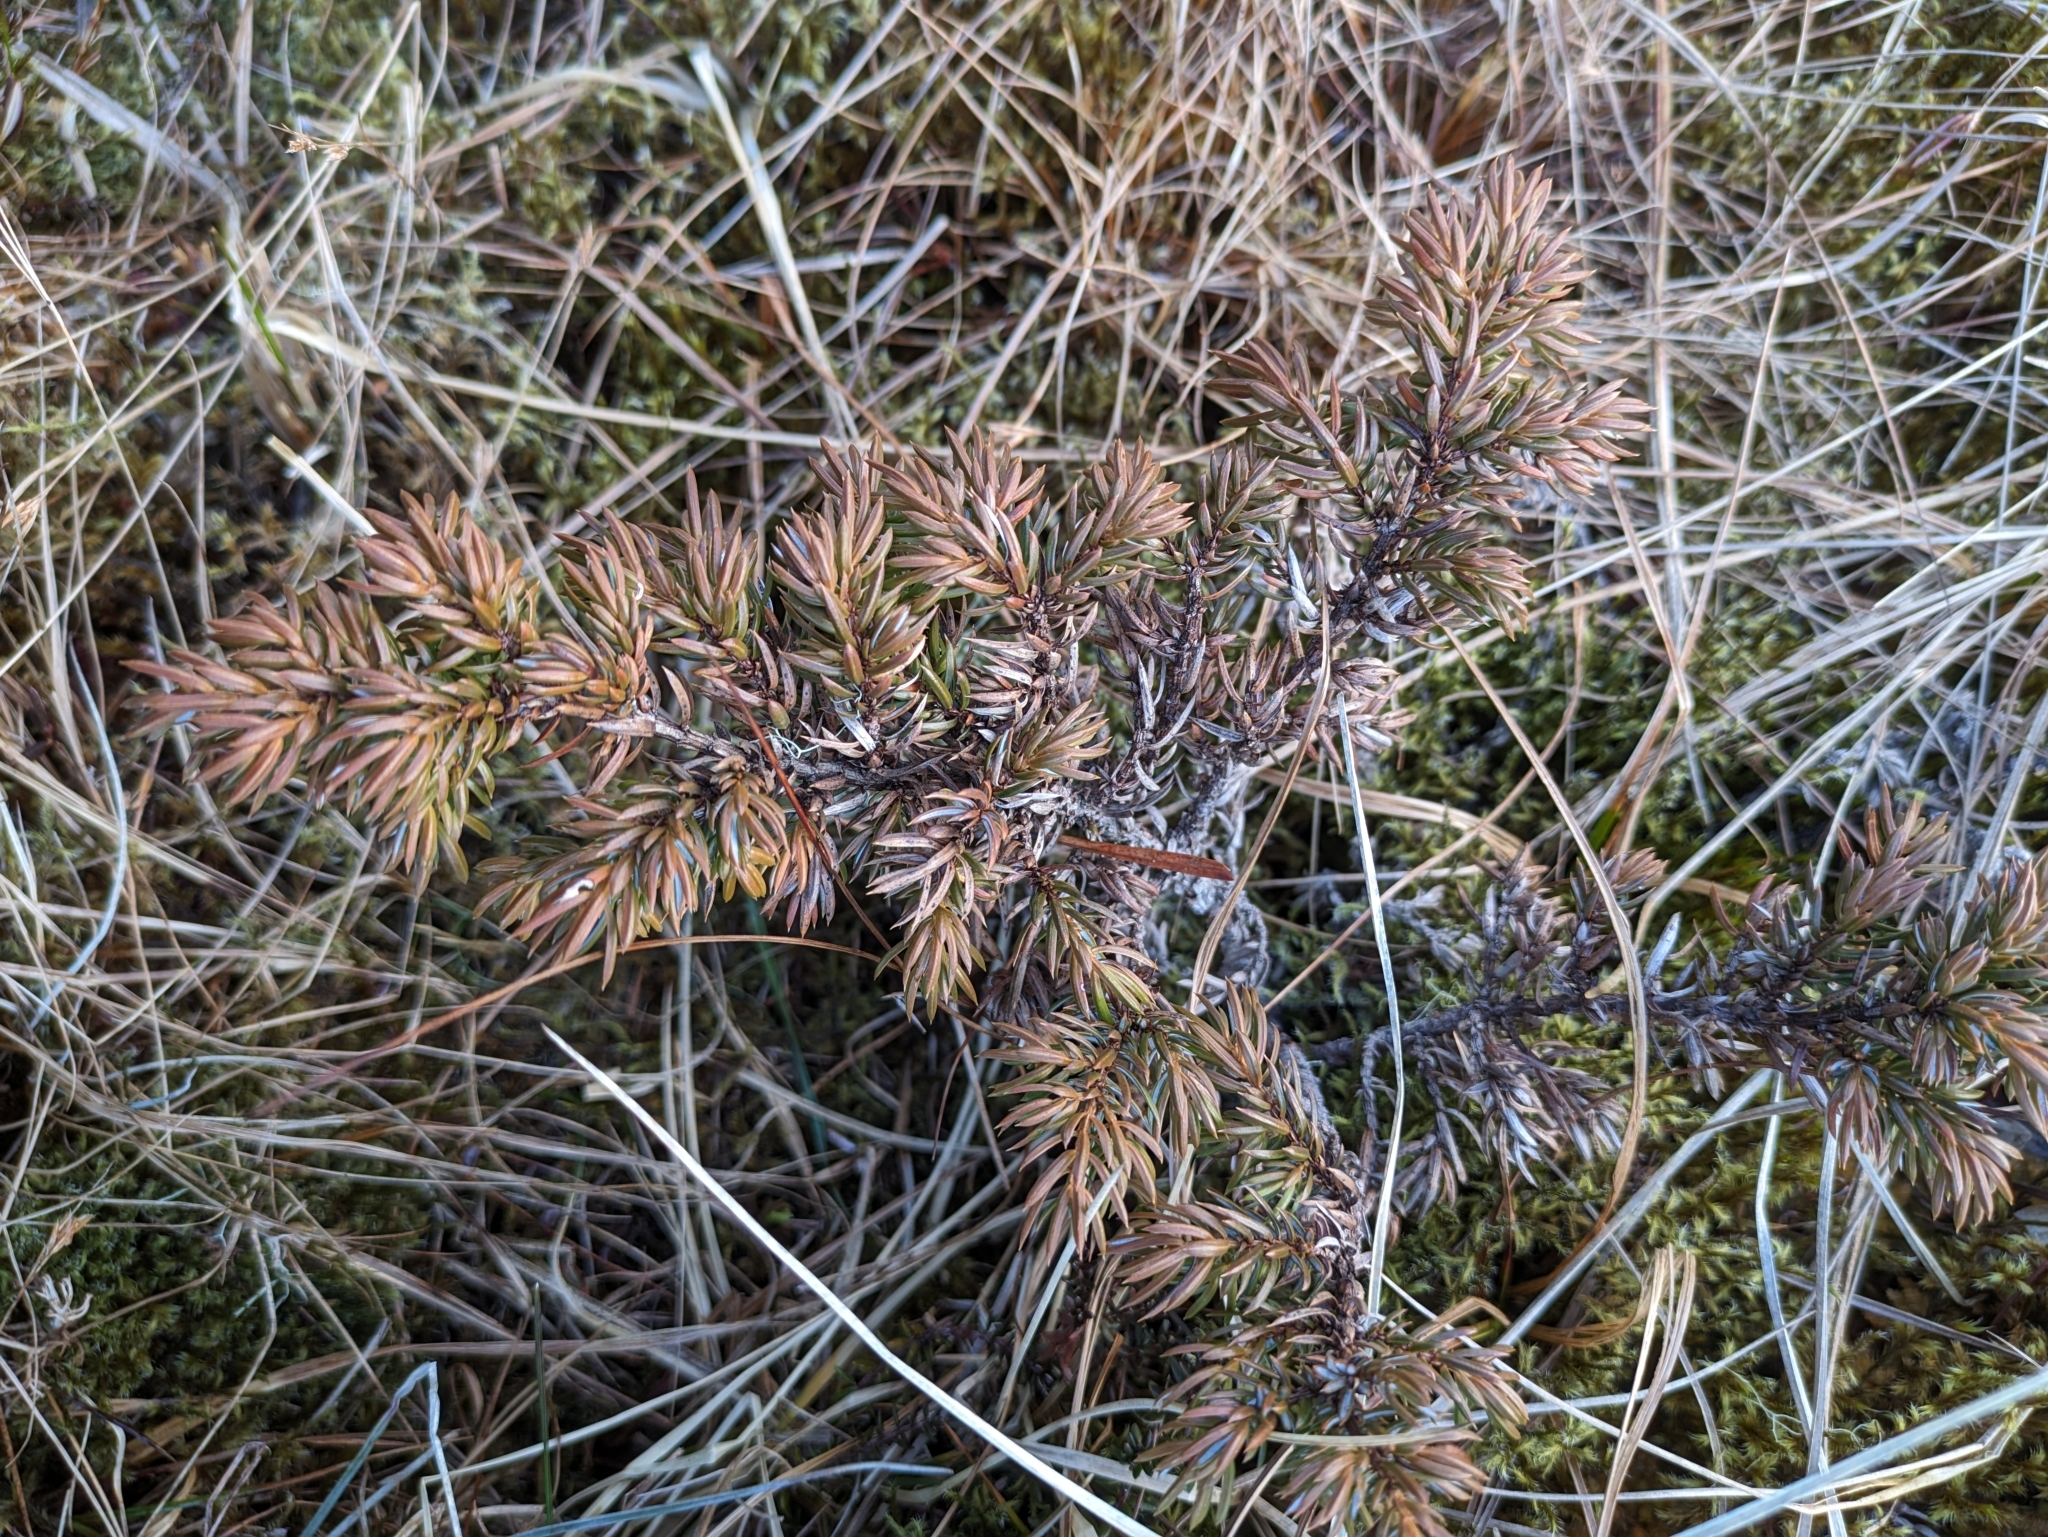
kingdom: Plantae
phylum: Tracheophyta
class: Pinopsida
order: Pinales
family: Cupressaceae
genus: Juniperus
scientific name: Juniperus communis
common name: Common juniper
